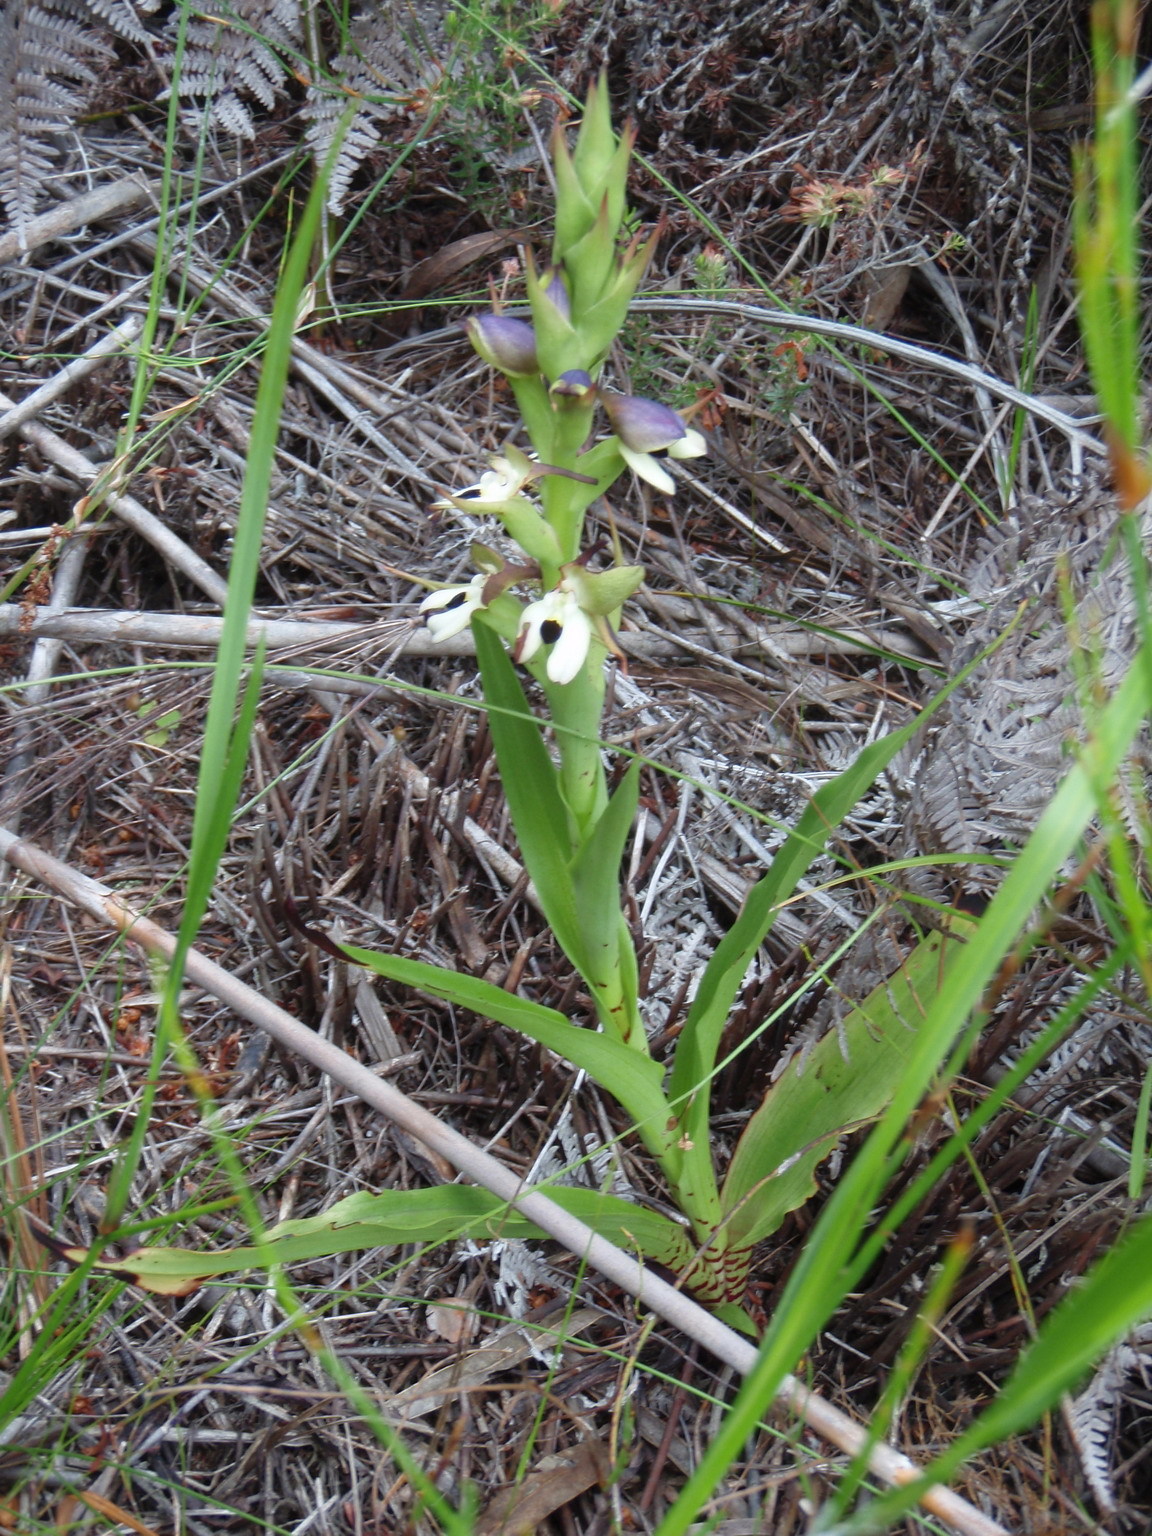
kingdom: Plantae
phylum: Tracheophyta
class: Liliopsida
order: Asparagales
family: Orchidaceae
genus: Disa
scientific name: Disa cornuta
